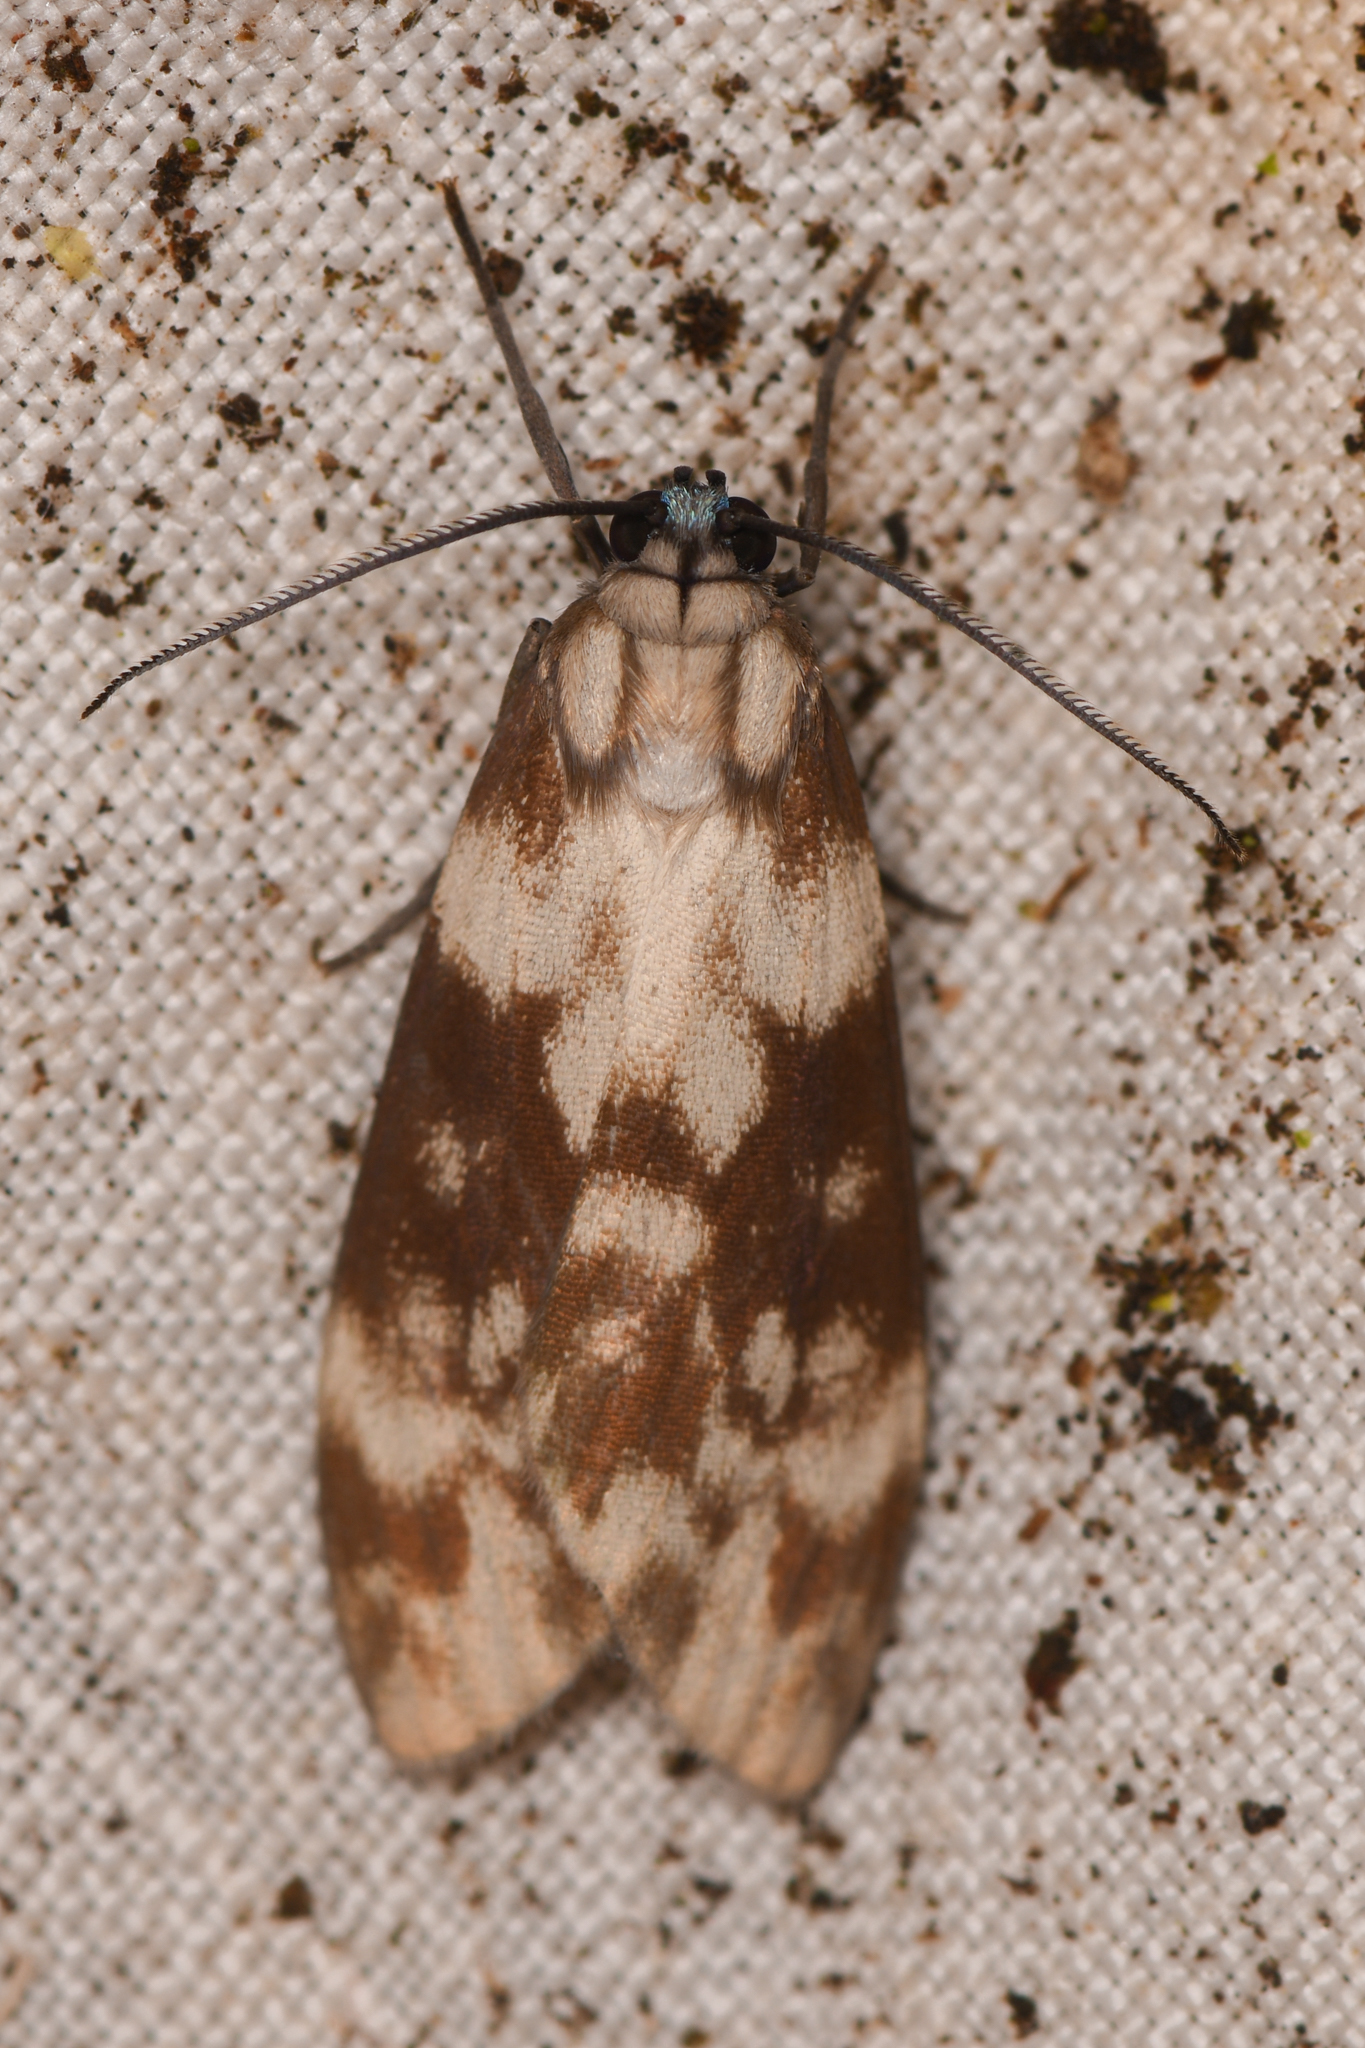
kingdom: Animalia
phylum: Arthropoda
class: Insecta
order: Lepidoptera
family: Erebidae
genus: Eucereon
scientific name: Eucereon discolor
